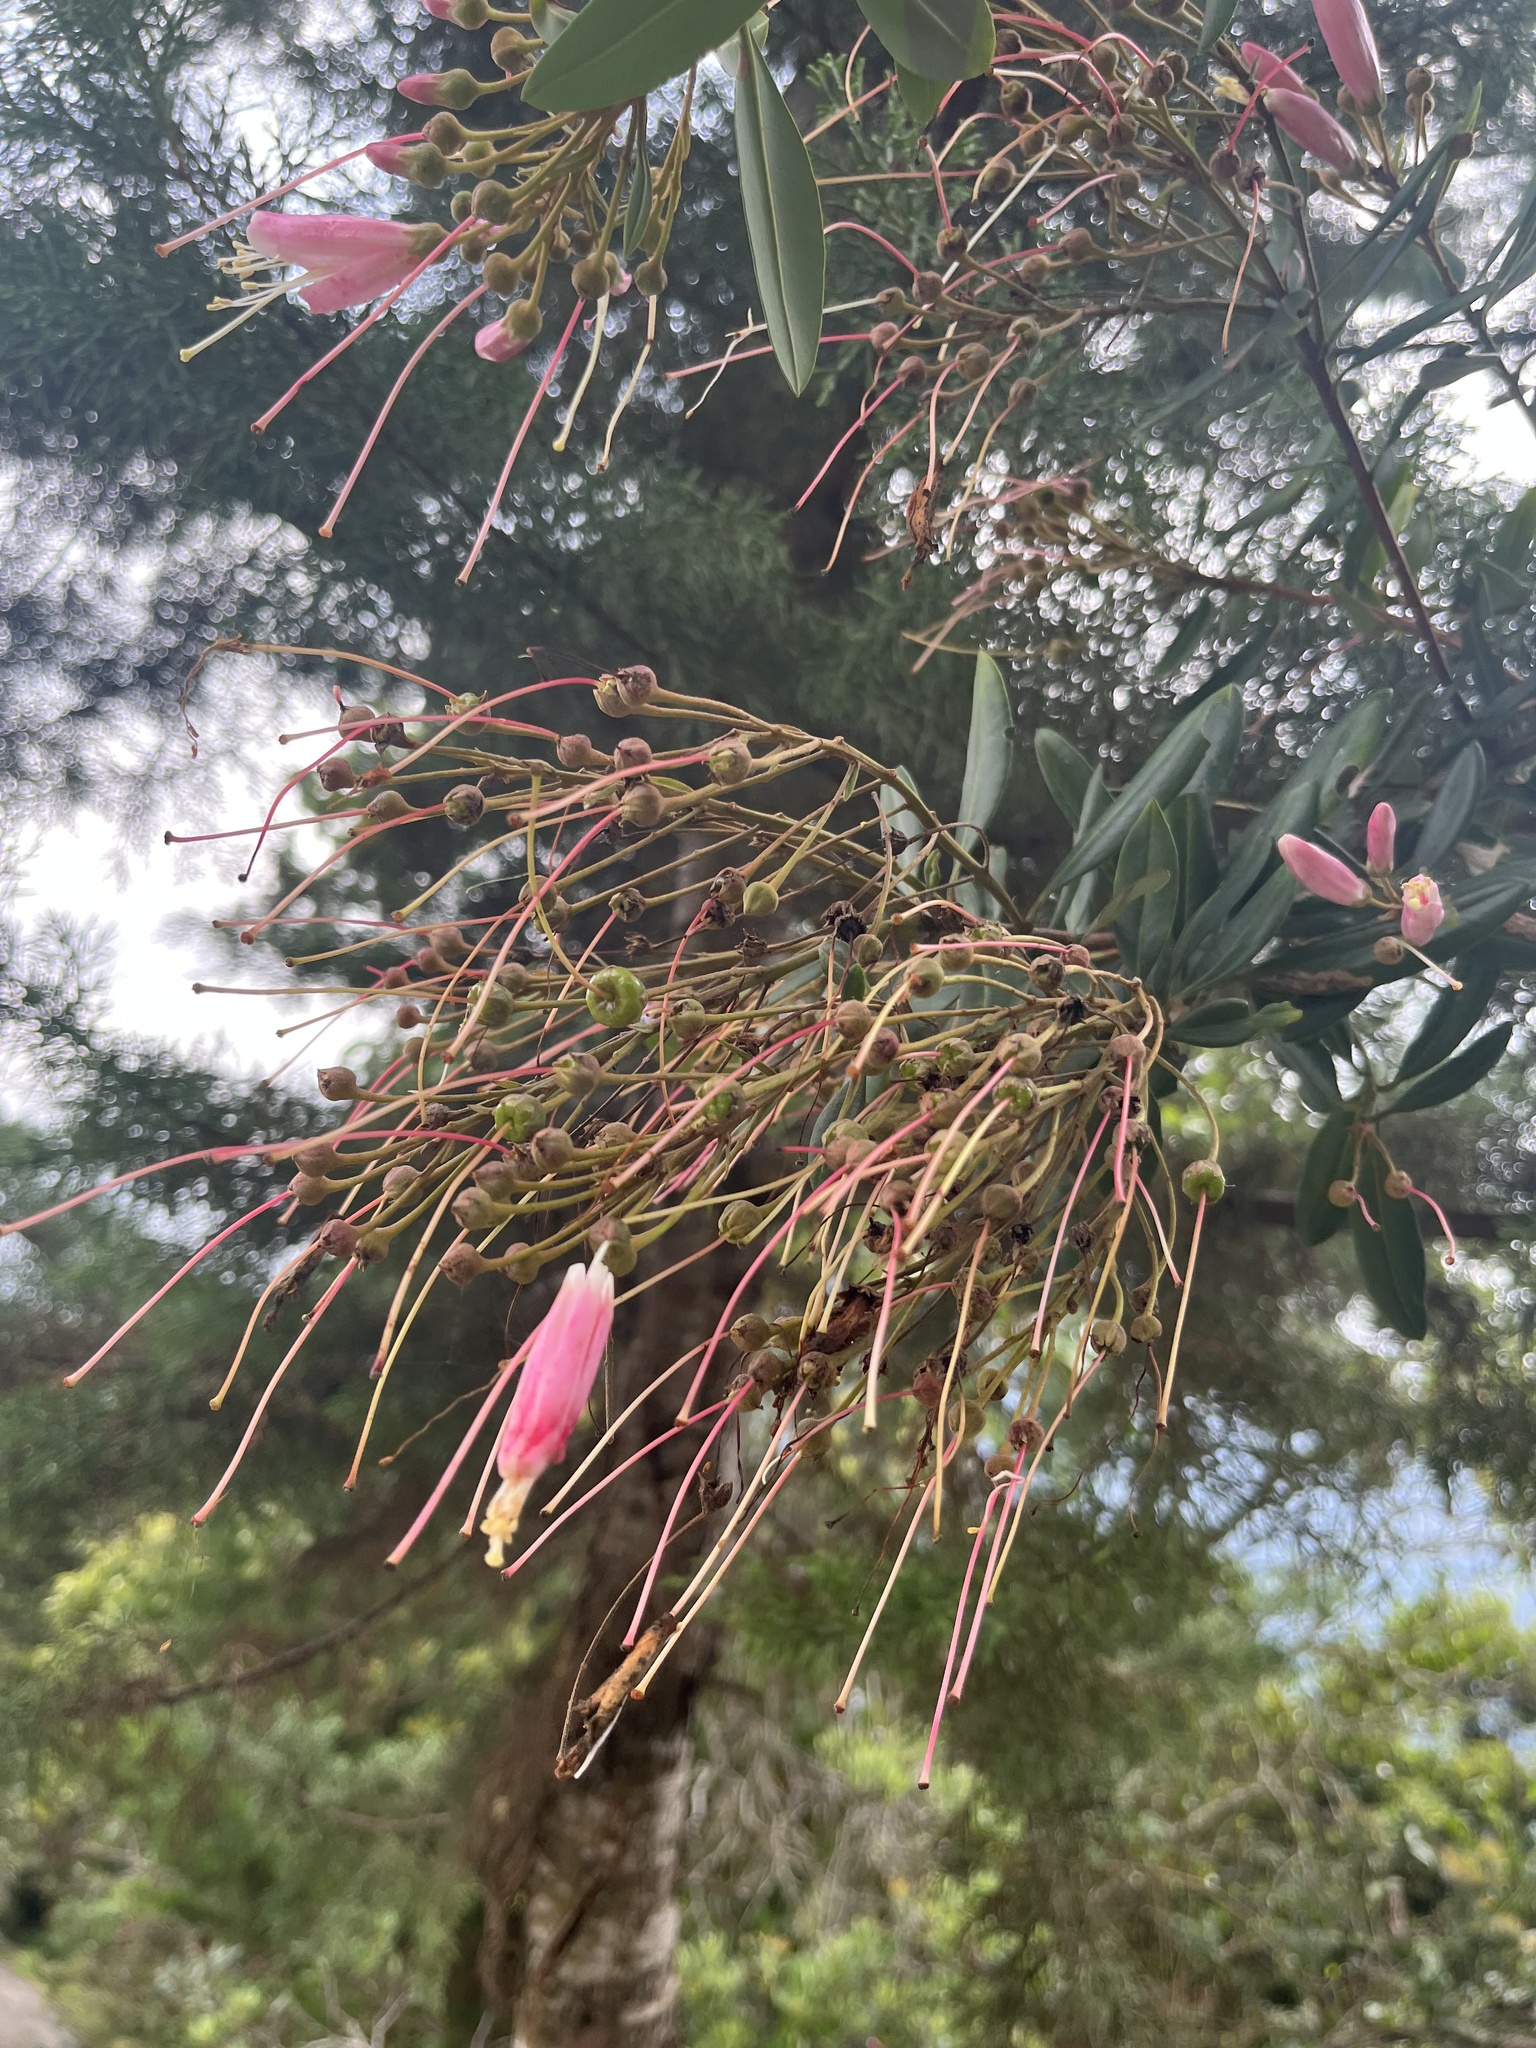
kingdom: Plantae
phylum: Tracheophyta
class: Magnoliopsida
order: Ericales
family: Ericaceae
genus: Bejaria
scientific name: Bejaria mathewsii
